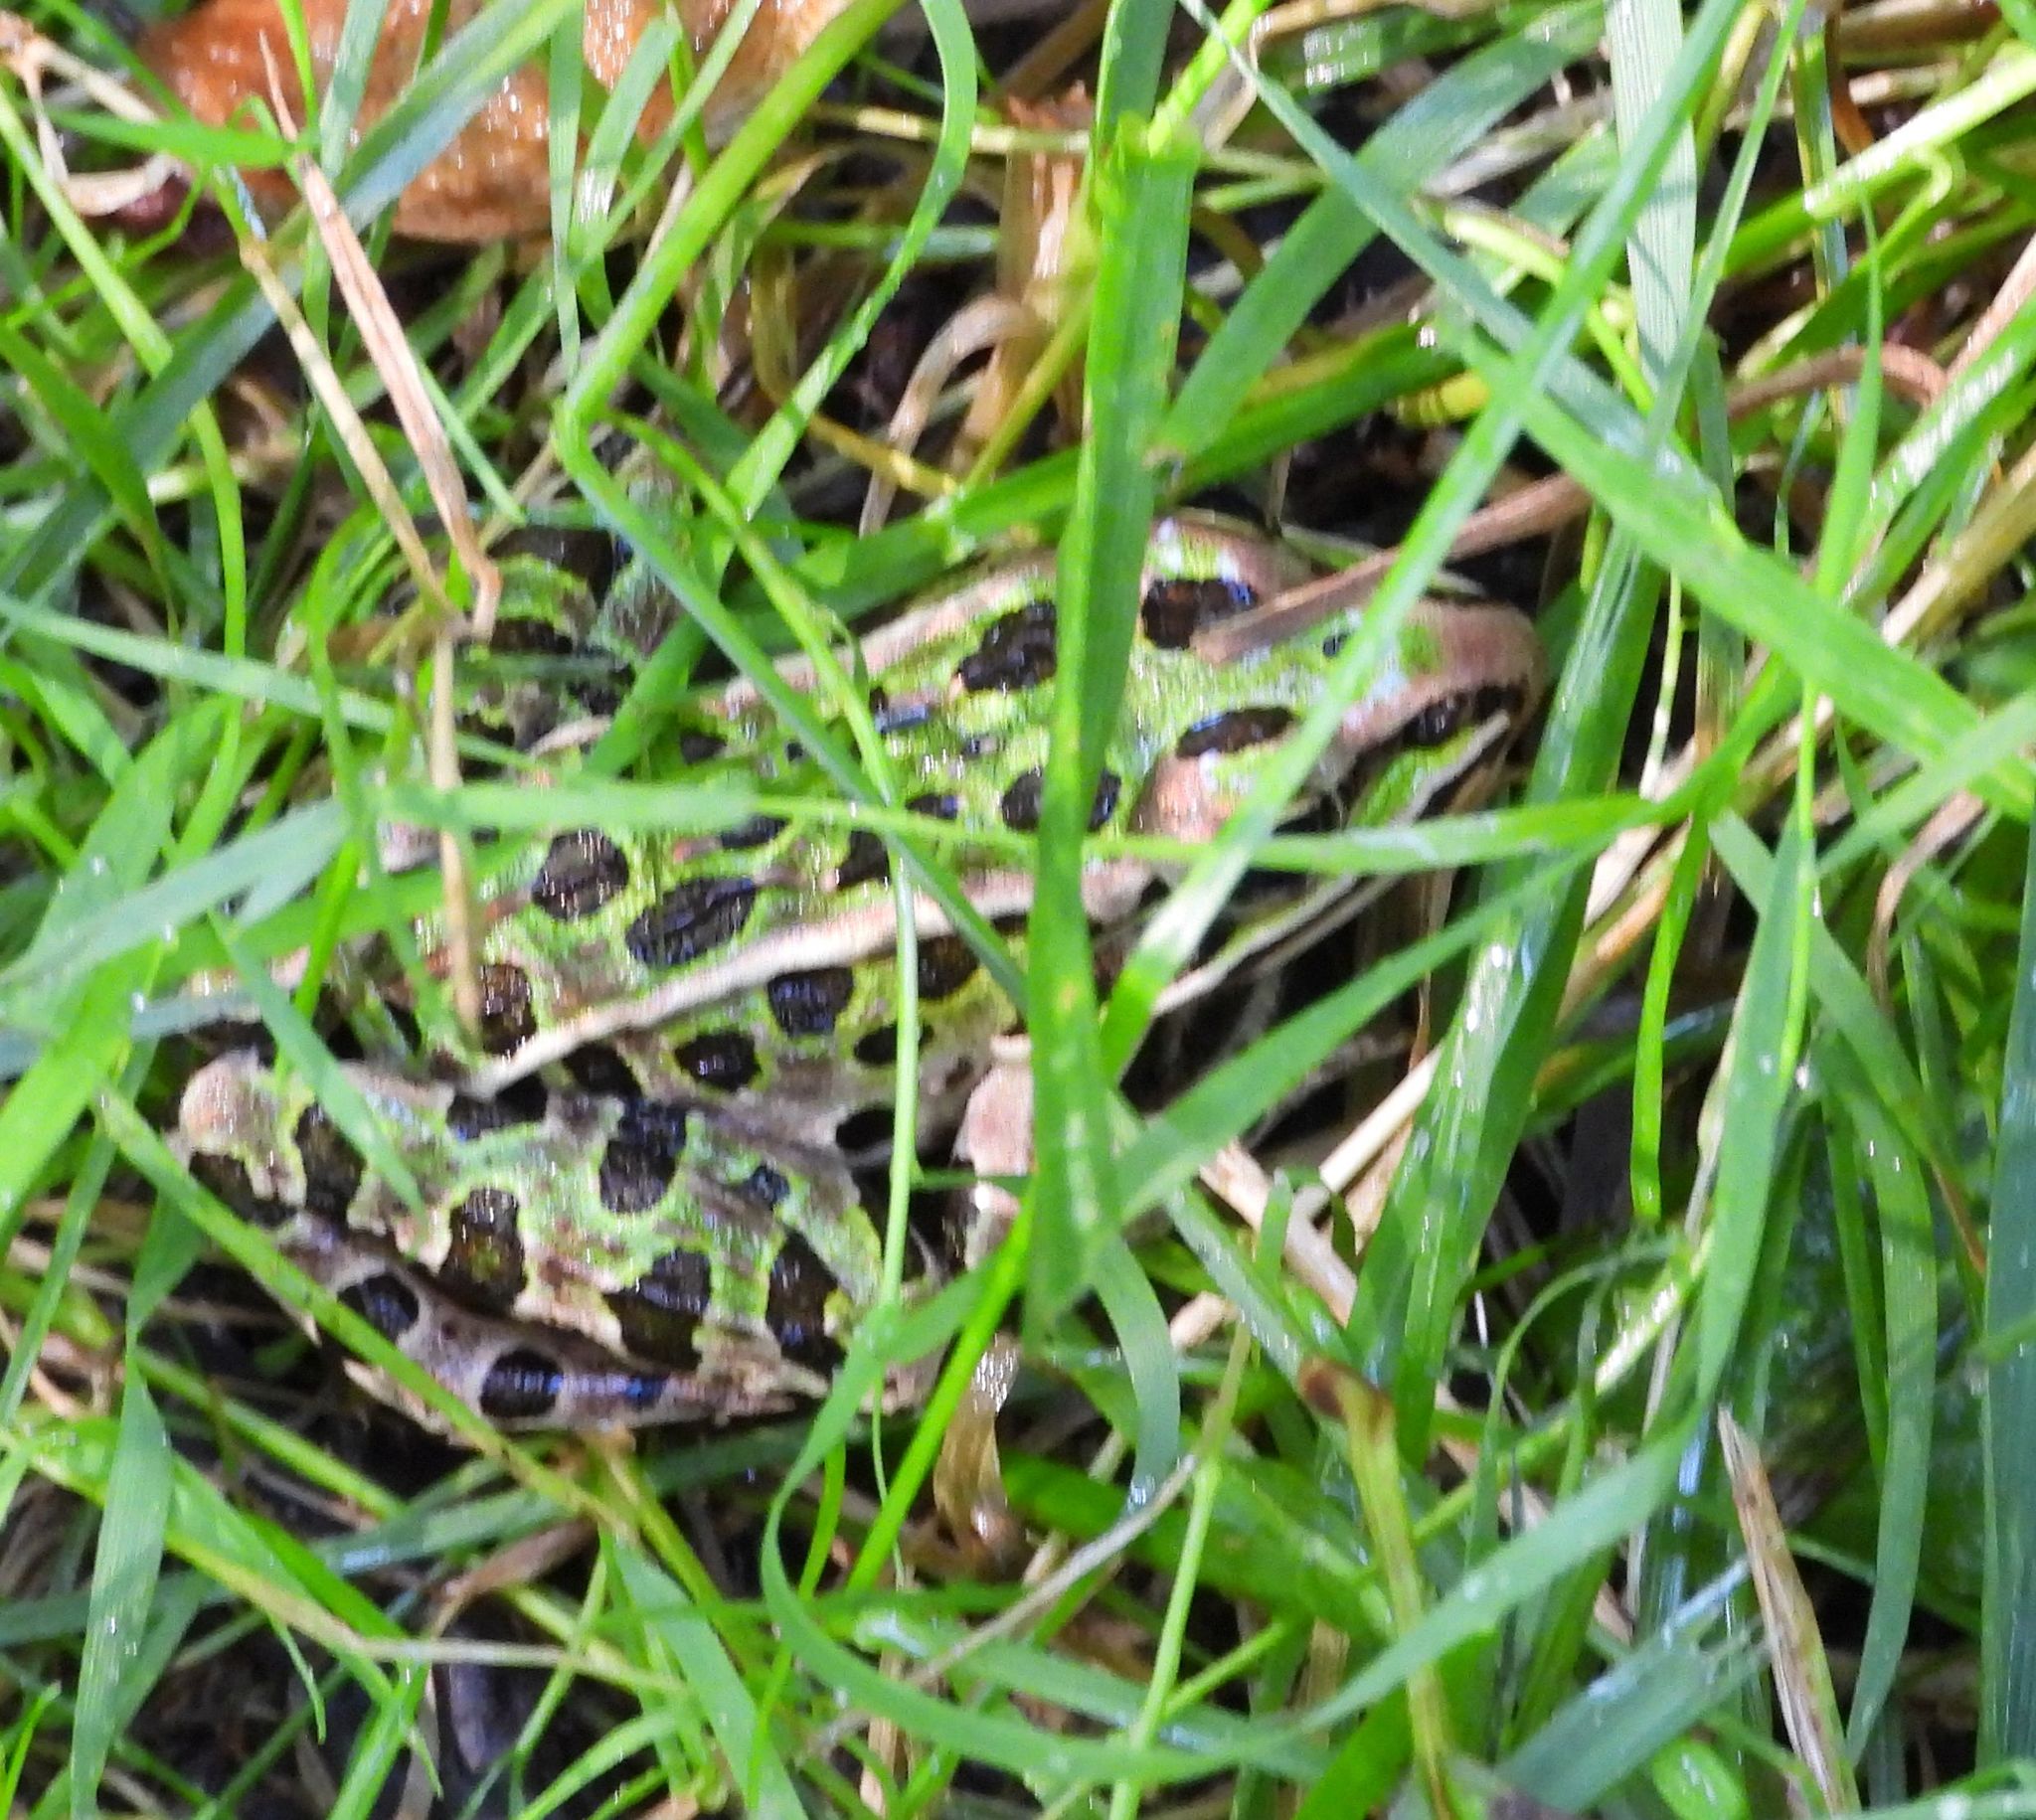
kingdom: Animalia
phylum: Chordata
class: Amphibia
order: Anura
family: Ranidae
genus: Lithobates
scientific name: Lithobates pipiens
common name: Northern leopard frog
